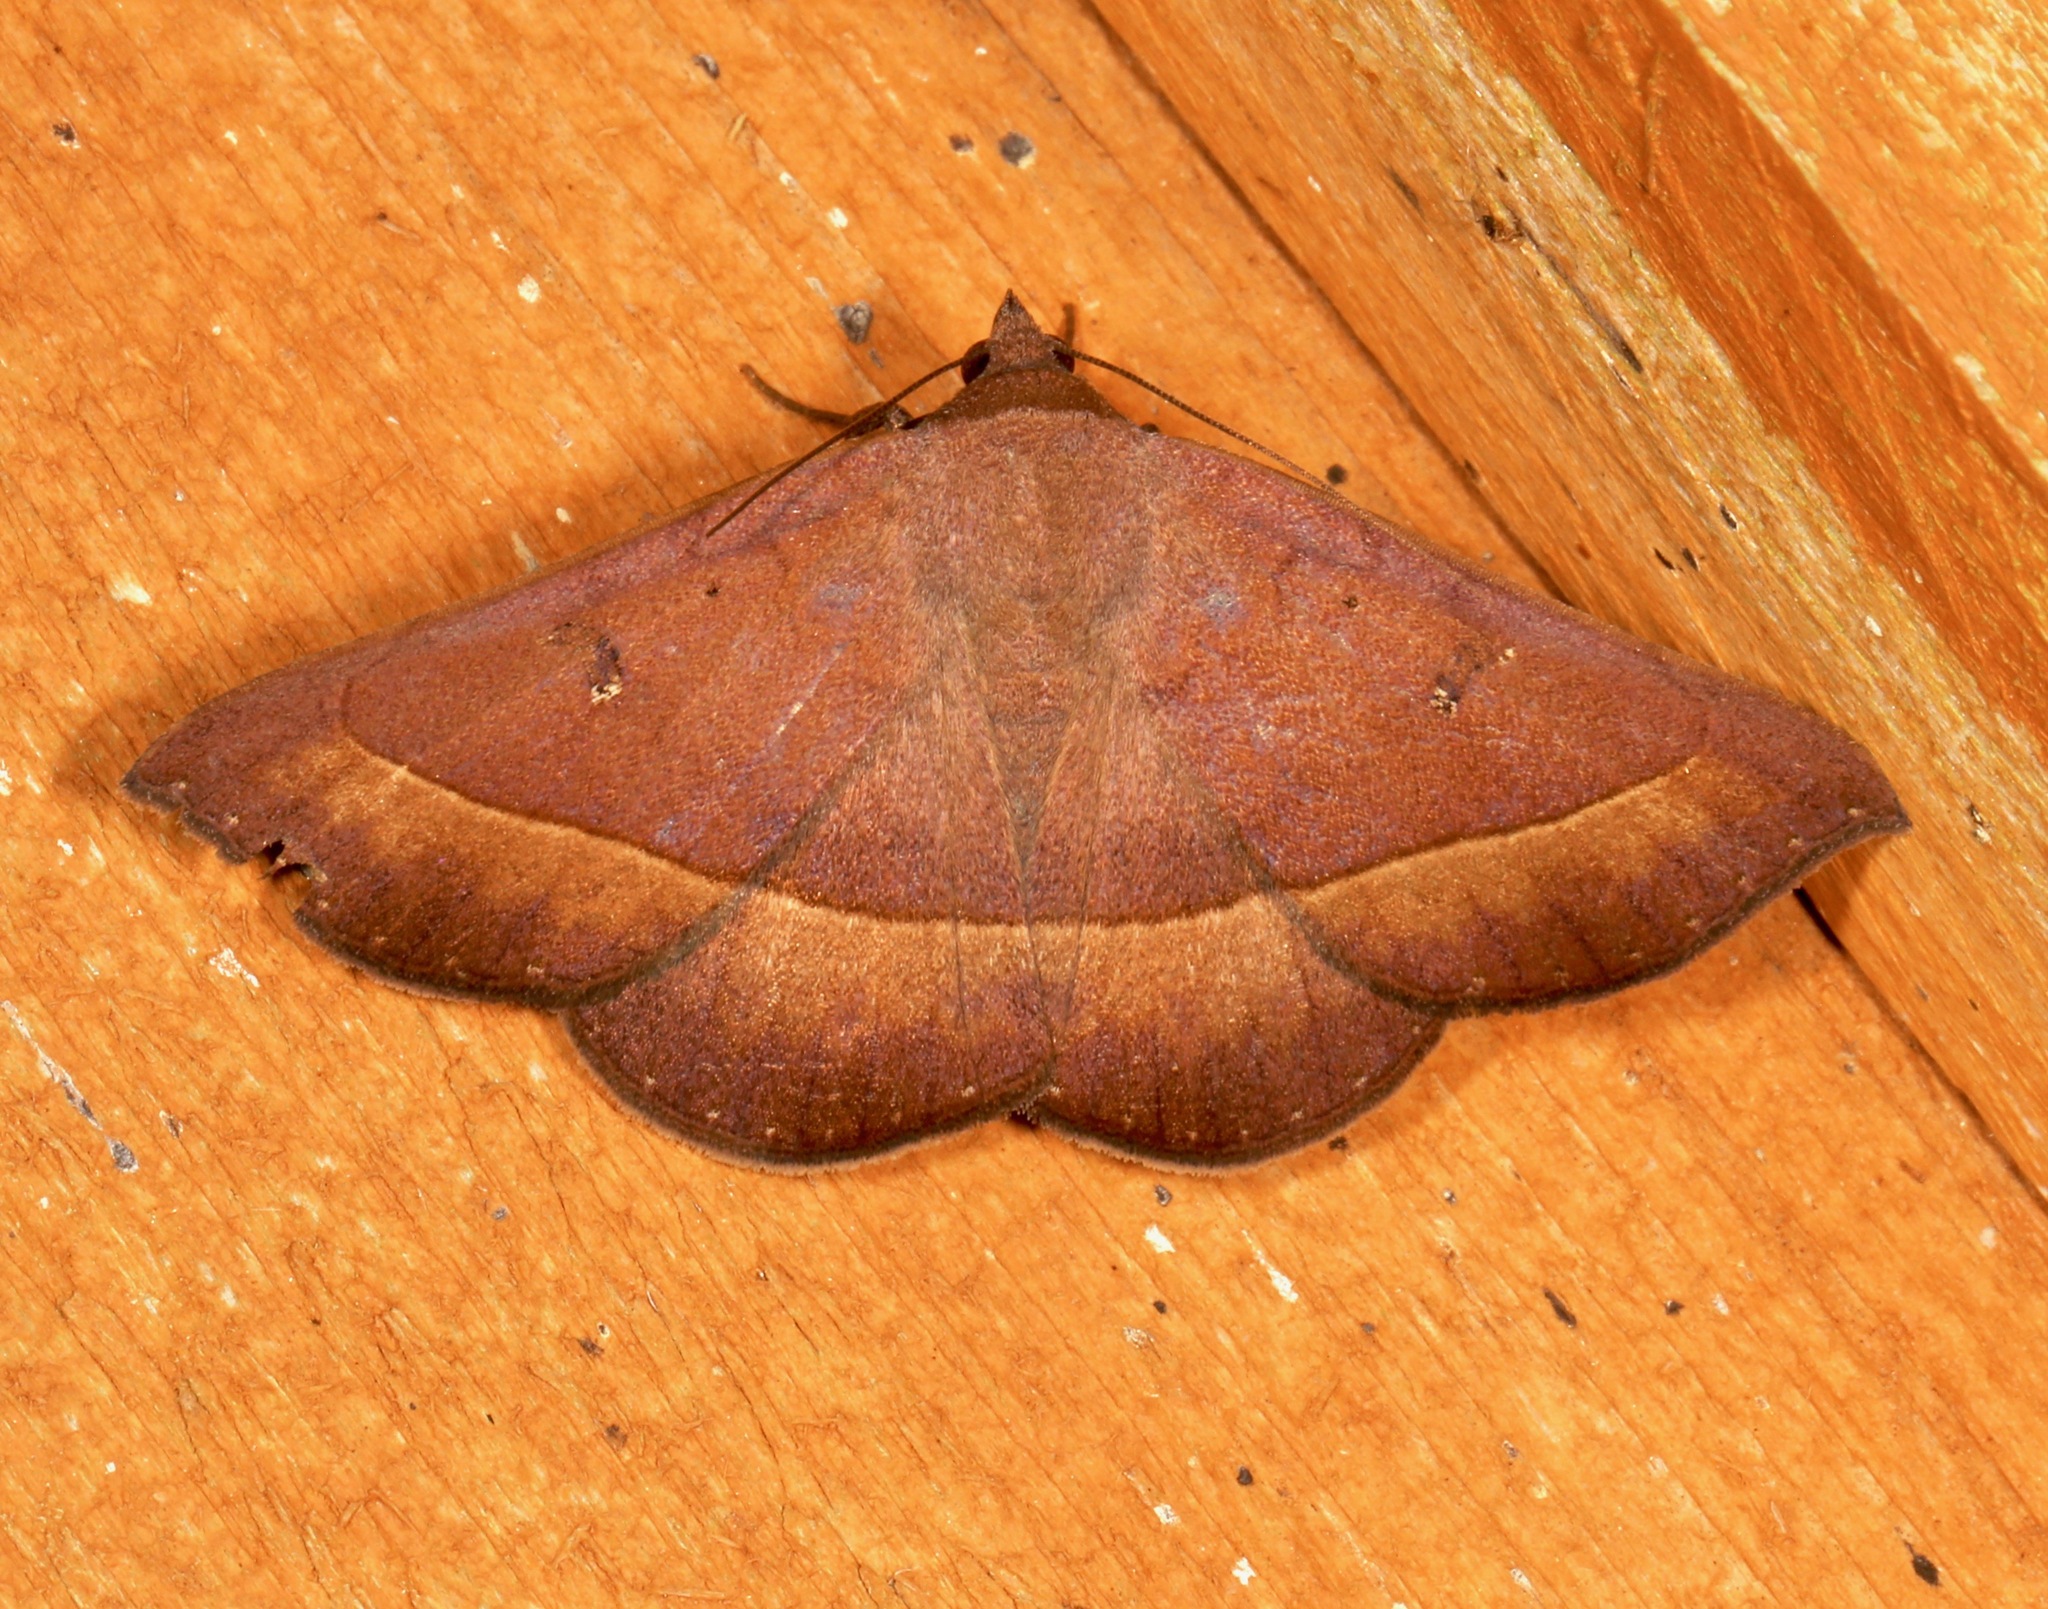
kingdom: Animalia
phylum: Arthropoda
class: Insecta
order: Lepidoptera
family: Erebidae
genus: Epidromia
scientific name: Epidromia rotundata
